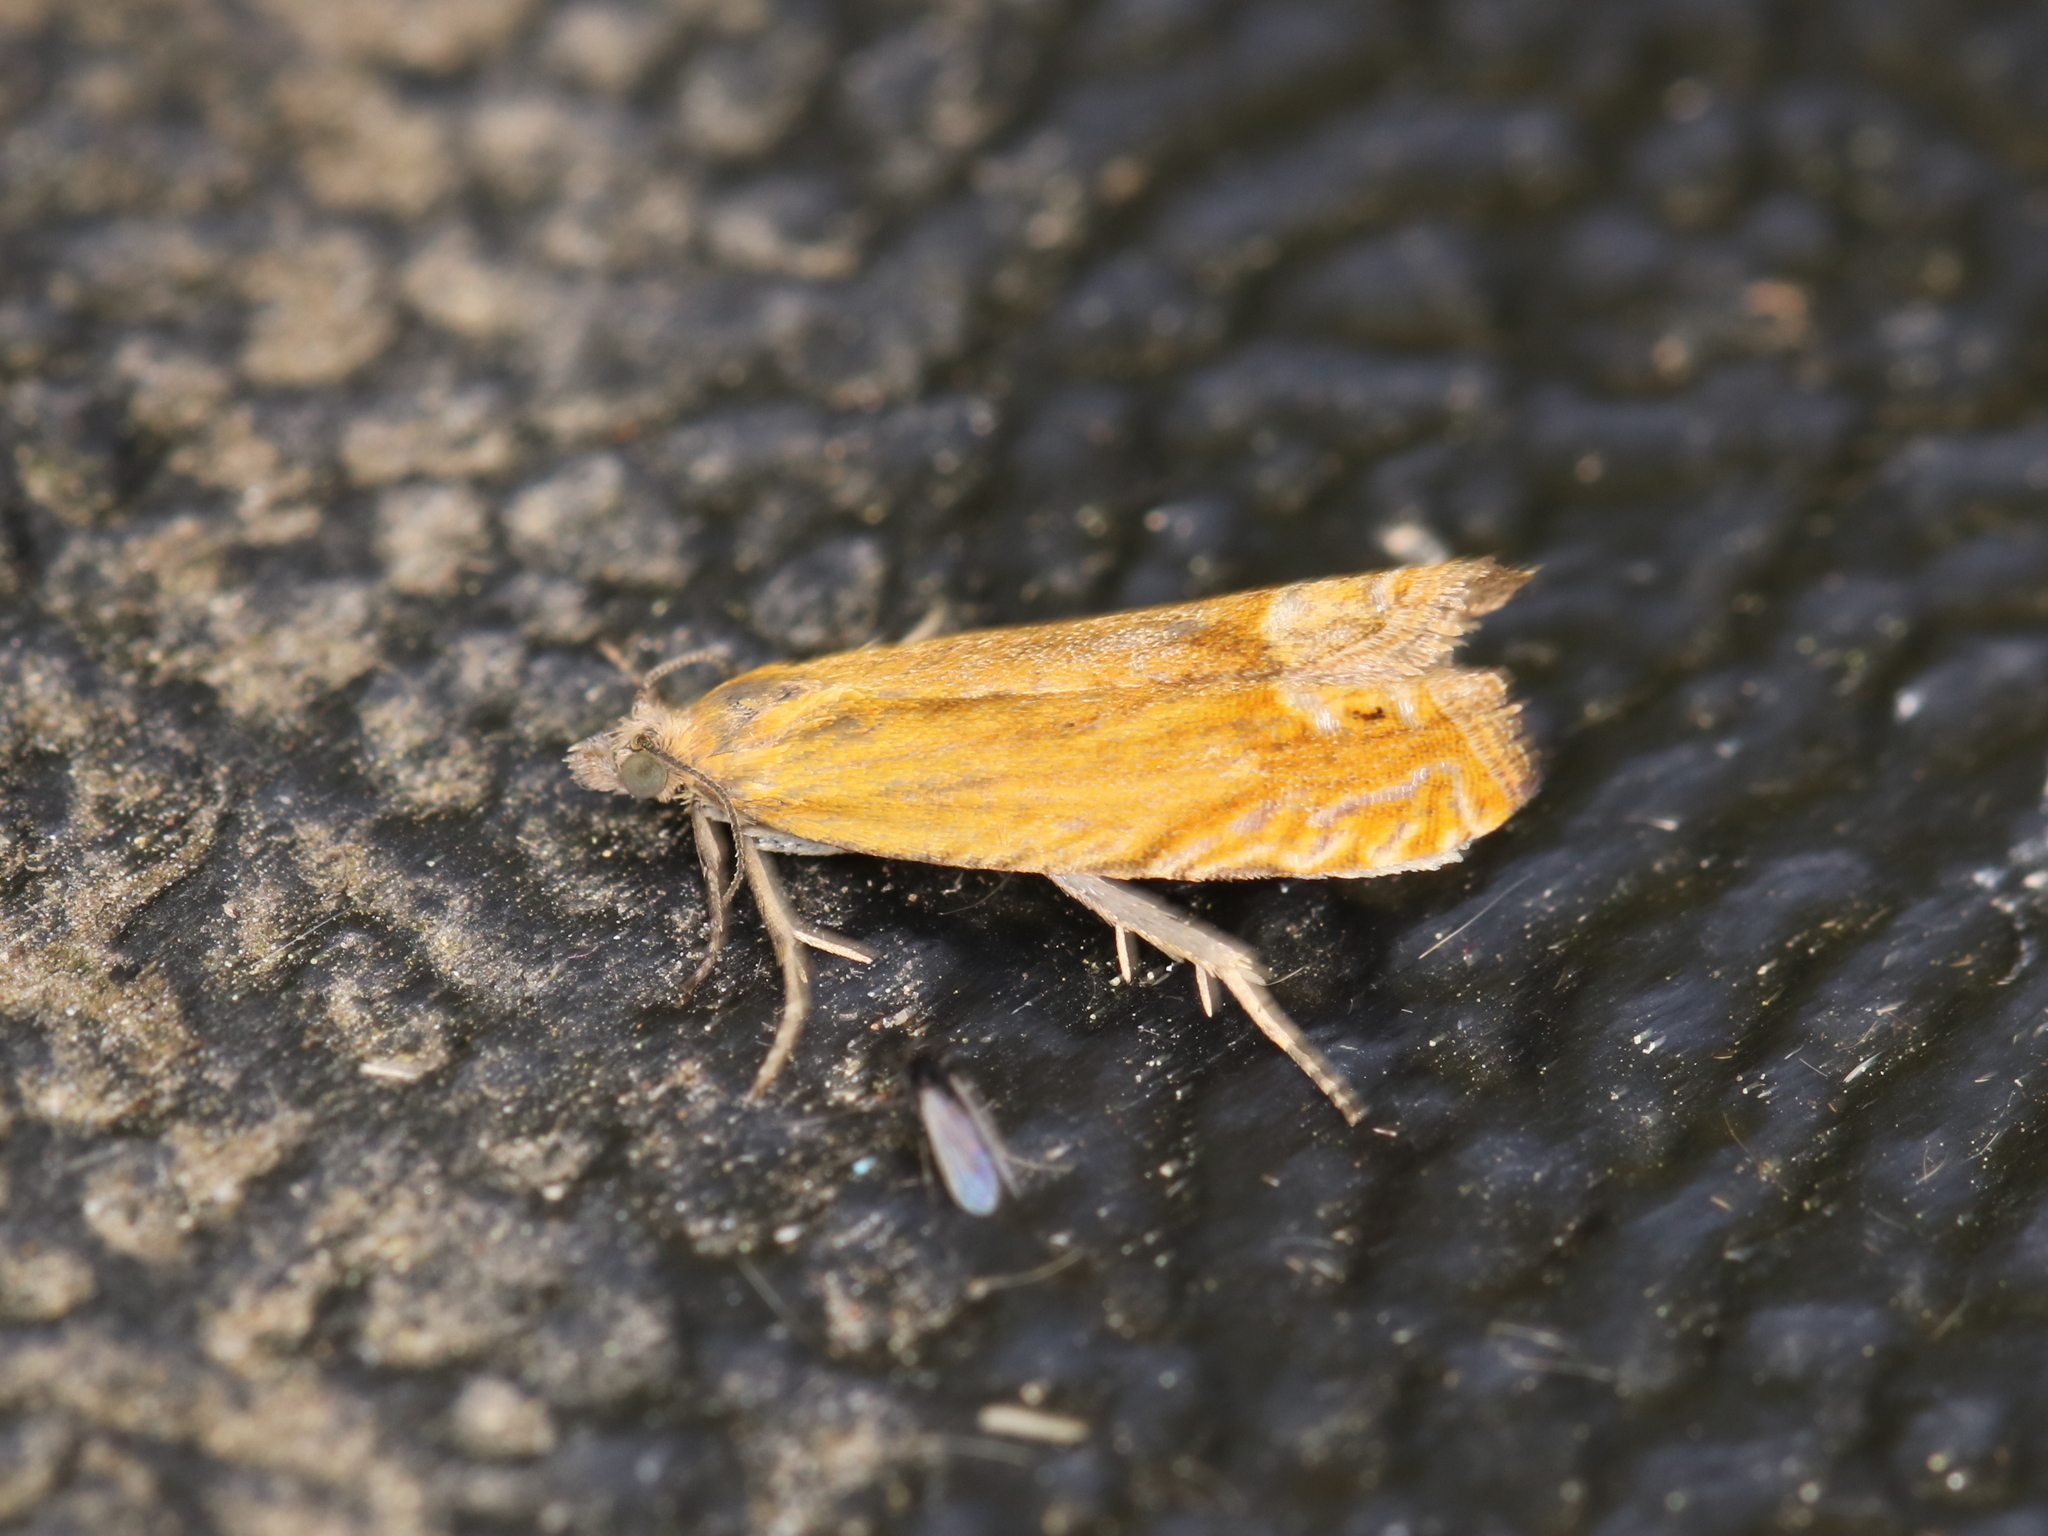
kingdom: Animalia
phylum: Arthropoda
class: Insecta
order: Lepidoptera
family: Tortricidae
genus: Lathronympha
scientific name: Lathronympha strigana
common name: Red piercer
